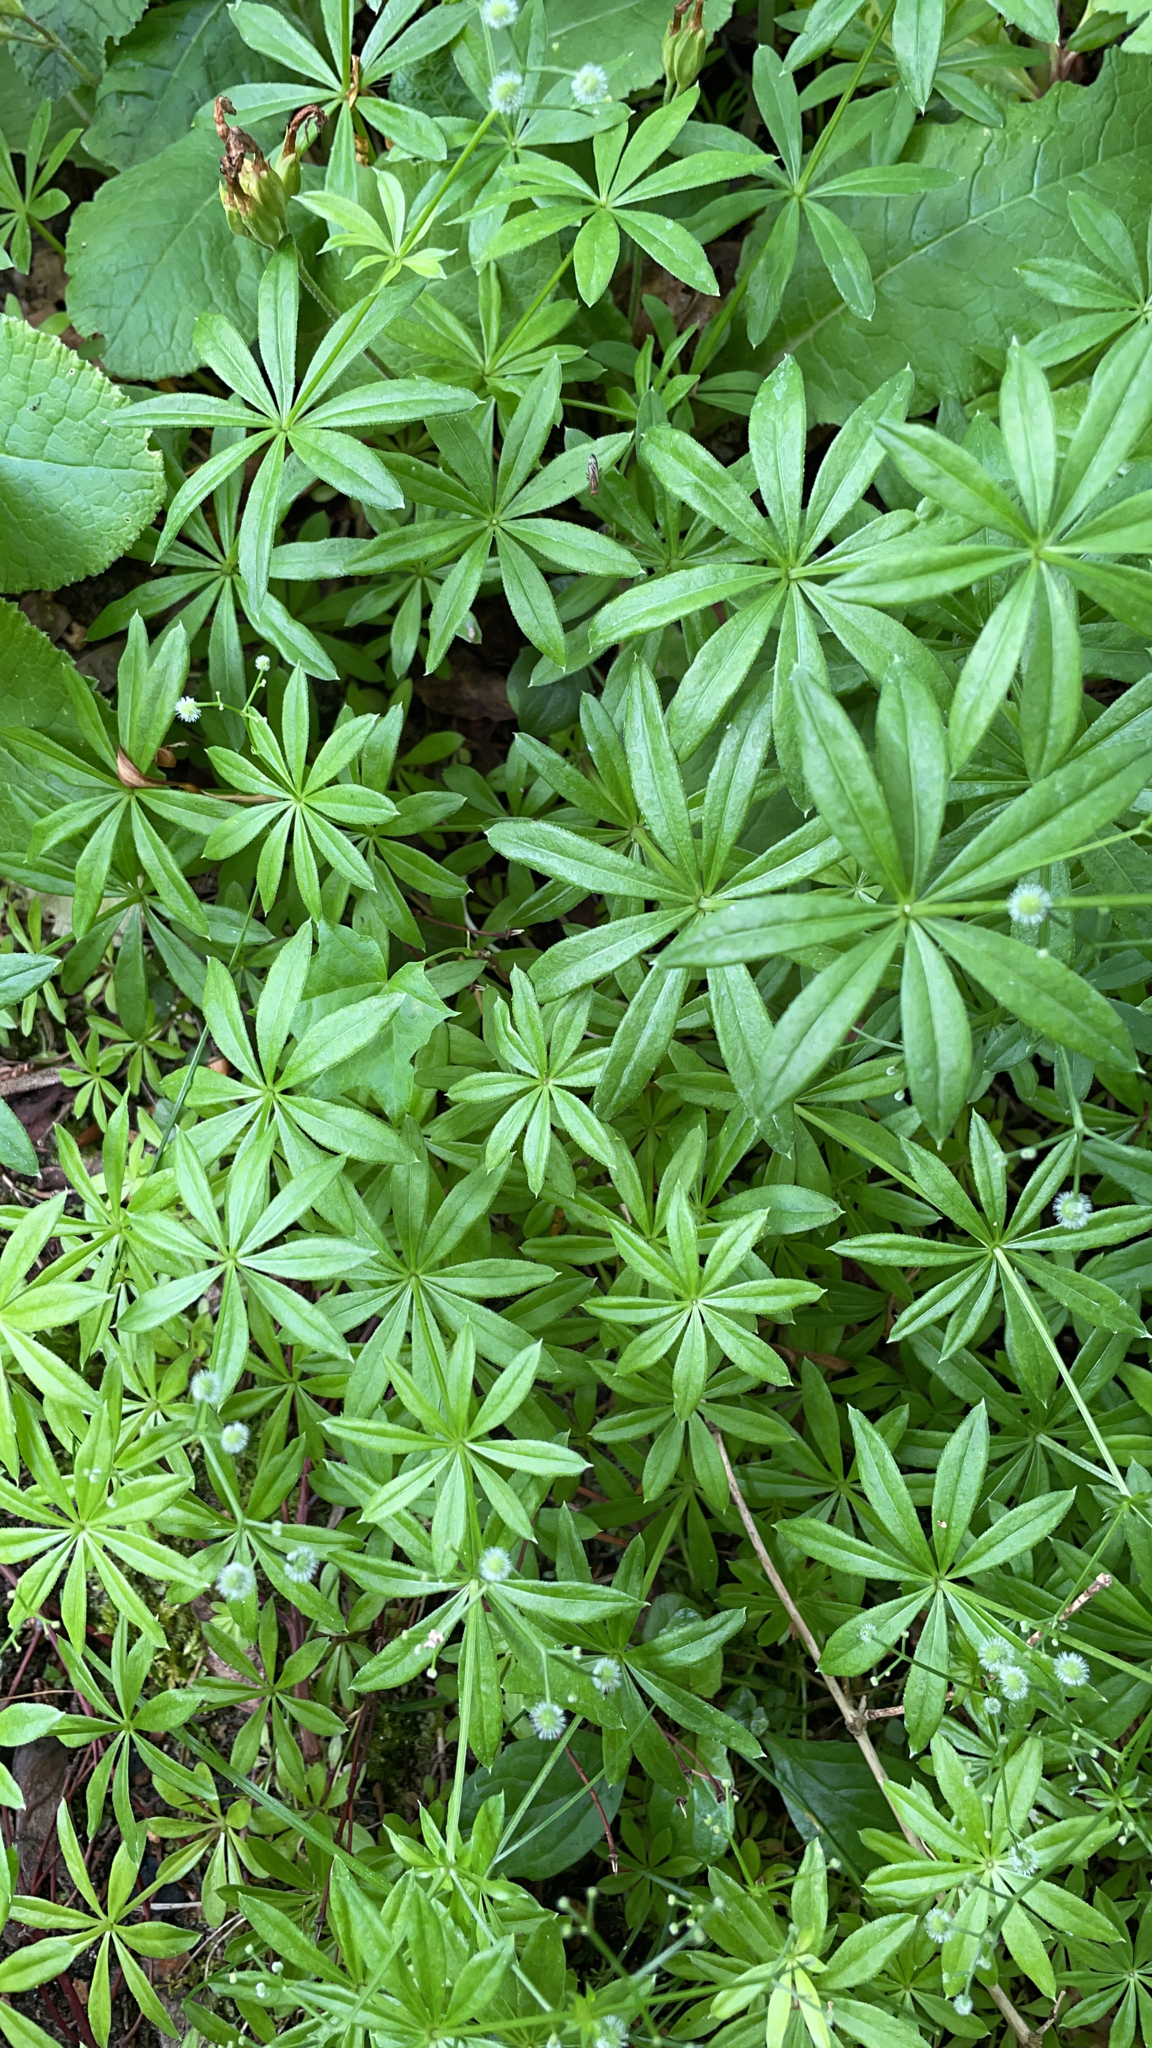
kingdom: Plantae
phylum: Tracheophyta
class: Magnoliopsida
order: Gentianales
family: Rubiaceae
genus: Galium
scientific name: Galium odoratum
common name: Sweet woodruff
